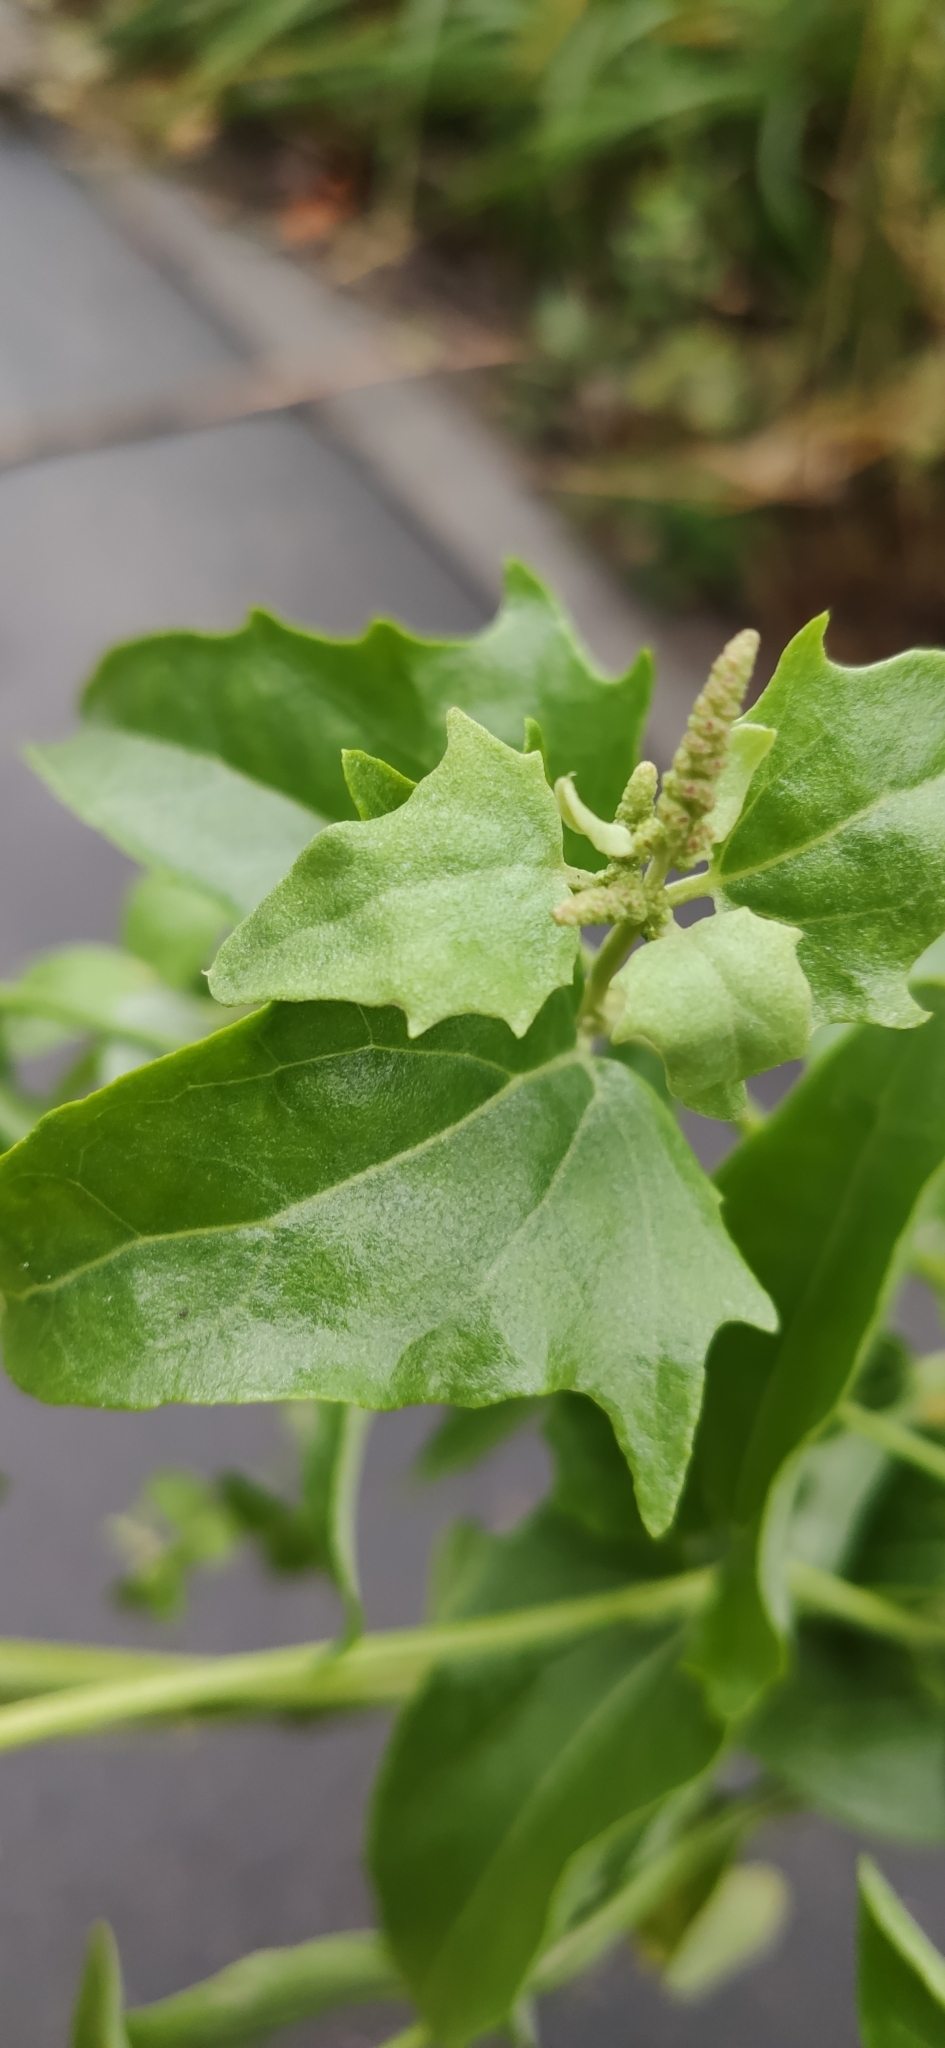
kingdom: Plantae
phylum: Tracheophyta
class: Magnoliopsida
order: Caryophyllales
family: Amaranthaceae
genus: Atriplex
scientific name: Atriplex sagittata
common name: Purple orache
